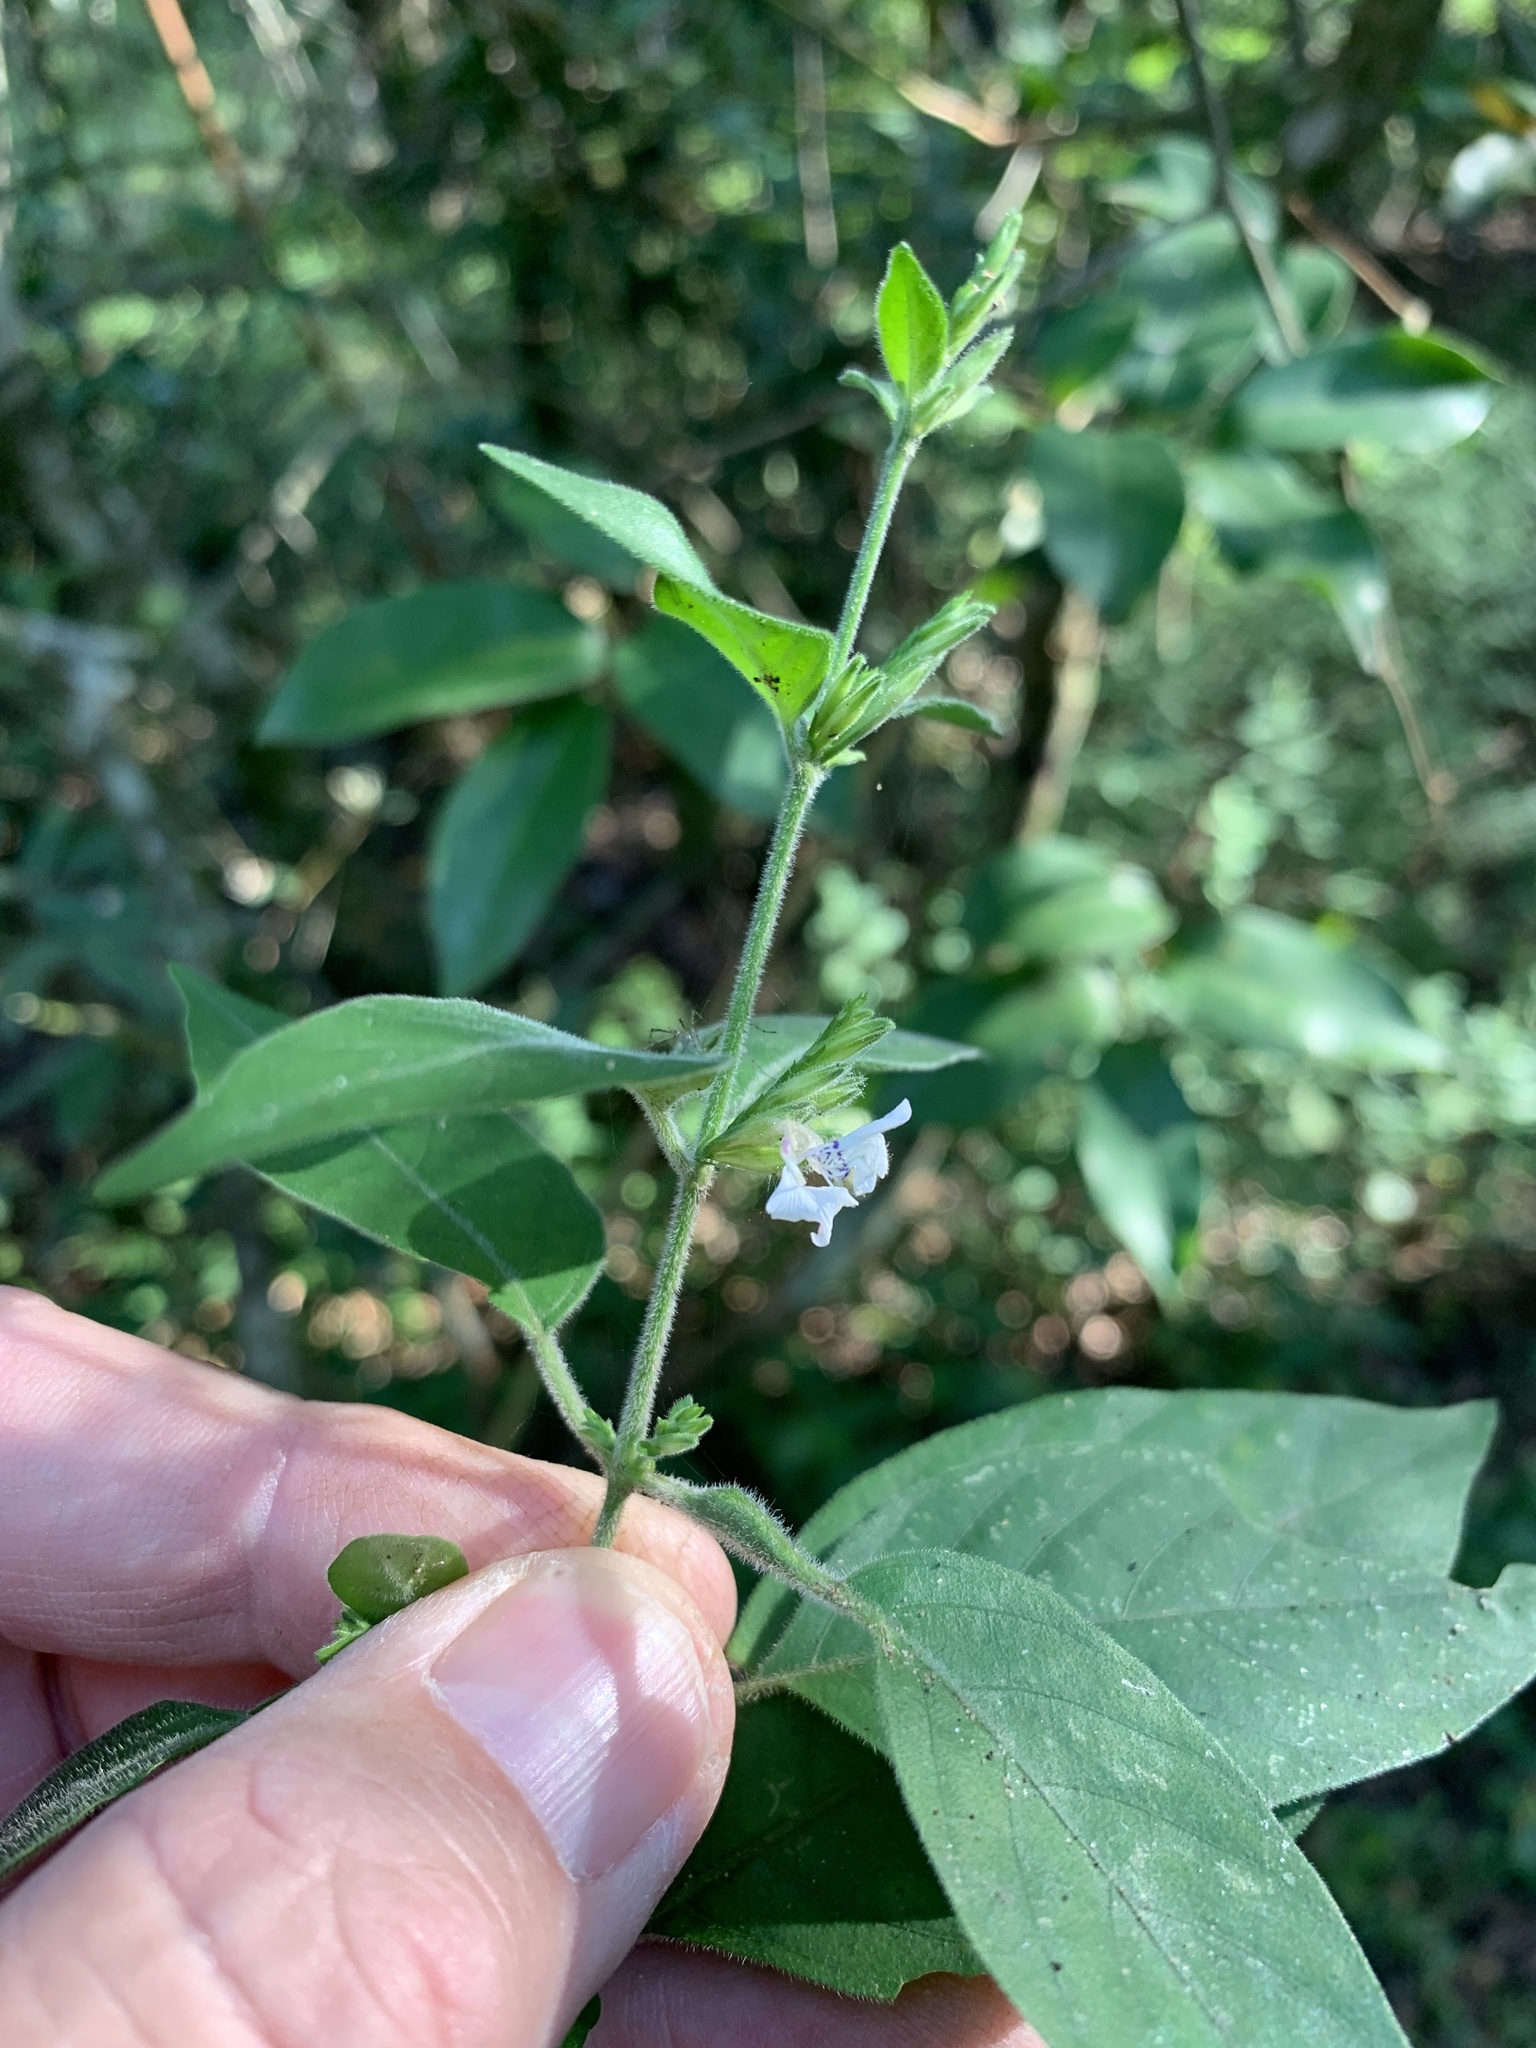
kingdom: Plantae
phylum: Tracheophyta
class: Magnoliopsida
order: Lamiales
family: Acanthaceae
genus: Hypoestes
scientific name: Hypoestes forskaolii
